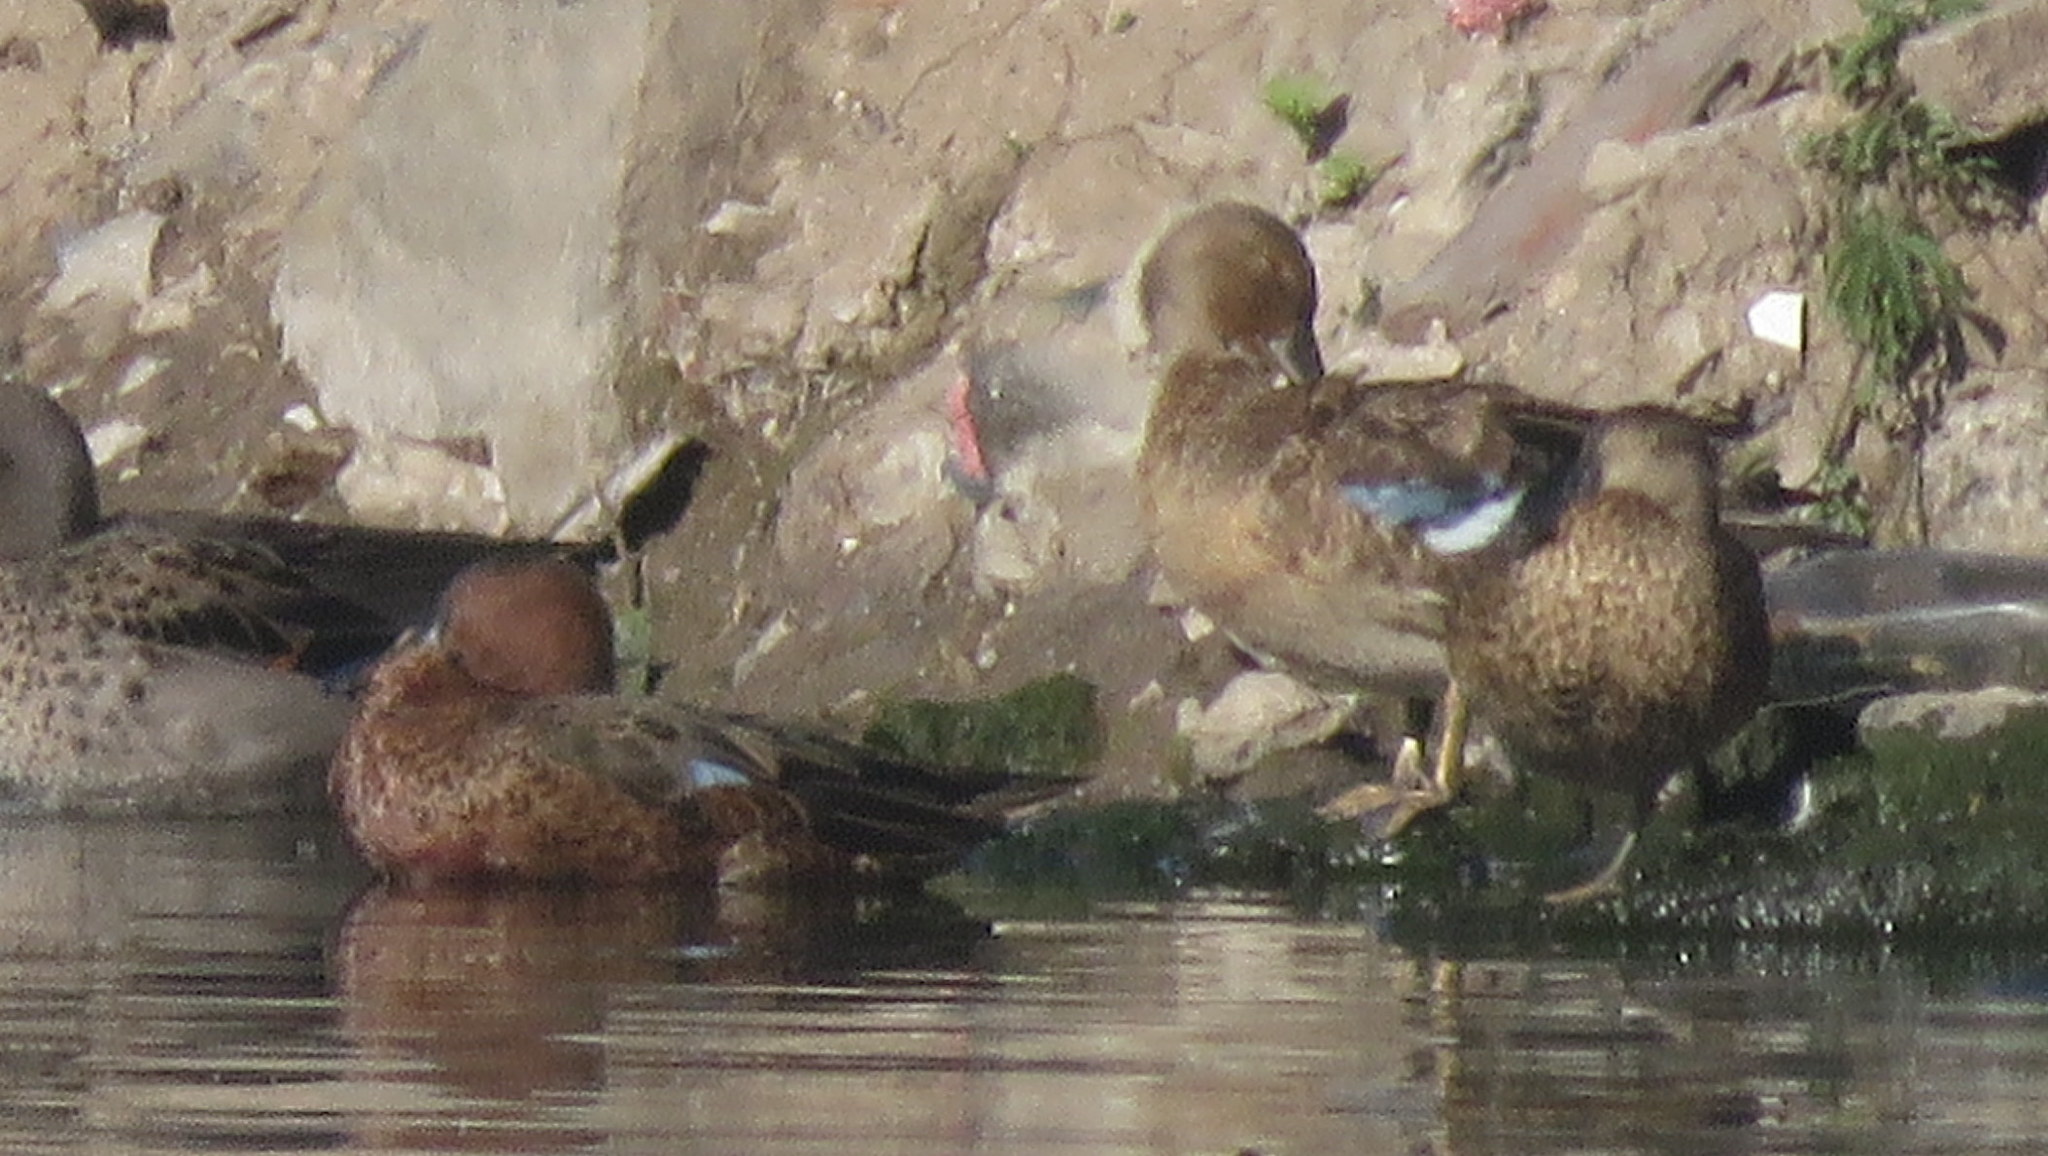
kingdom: Animalia
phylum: Chordata
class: Aves
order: Anseriformes
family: Anatidae
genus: Spatula
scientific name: Spatula cyanoptera
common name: Cinnamon teal
